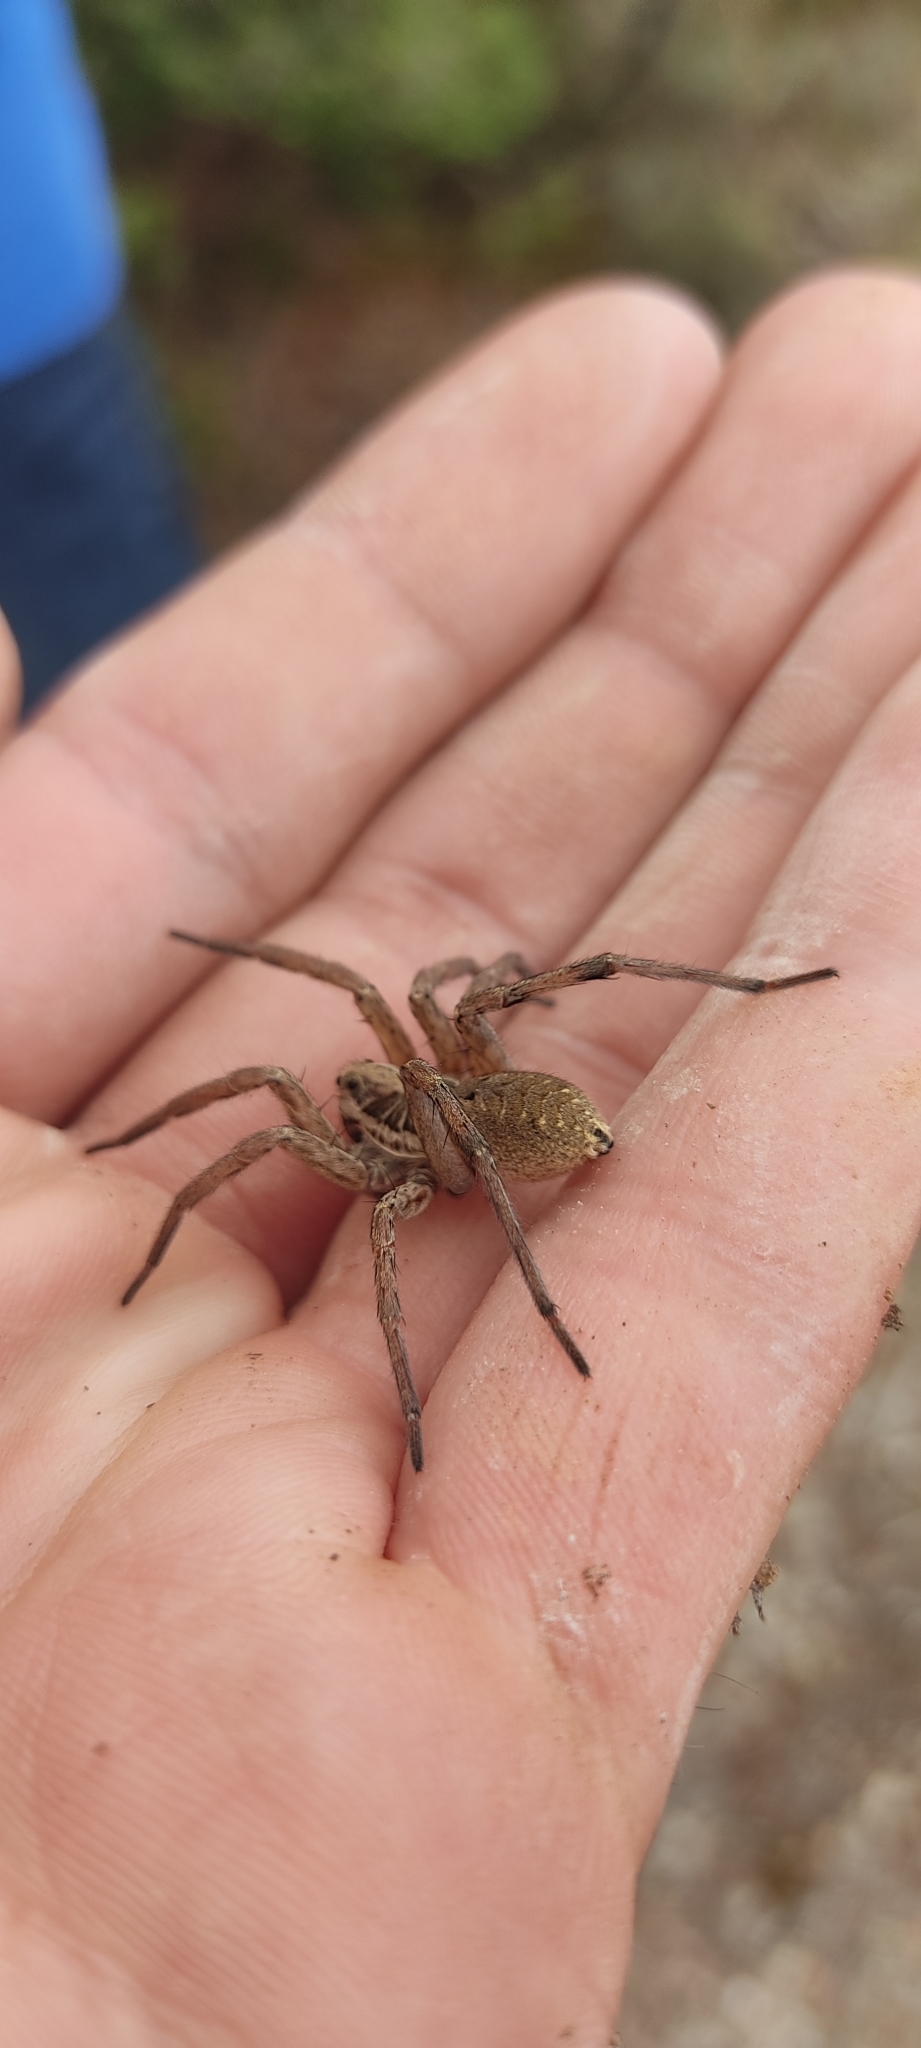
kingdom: Animalia
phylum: Arthropoda
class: Arachnida
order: Araneae
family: Lycosidae
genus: Hogna
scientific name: Hogna radiata
